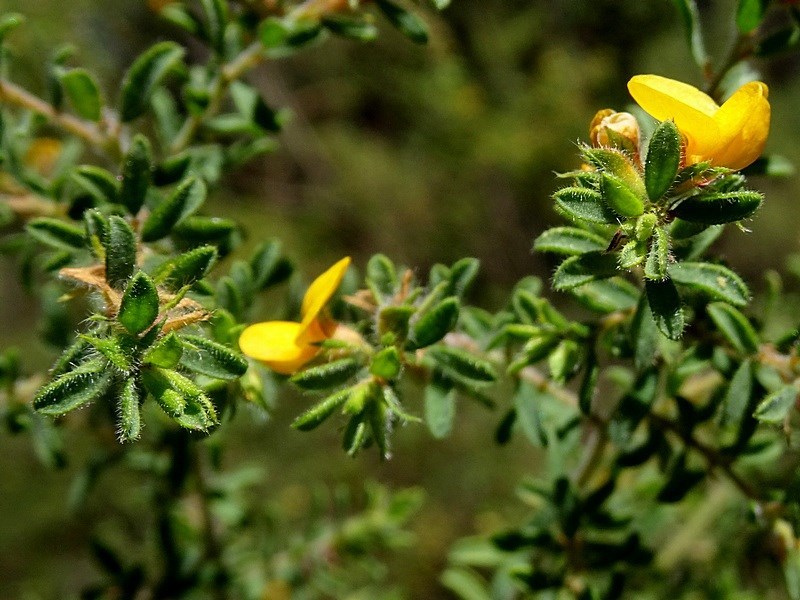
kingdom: Plantae
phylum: Tracheophyta
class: Magnoliopsida
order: Fabales
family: Fabaceae
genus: Pultenaea
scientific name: Pultenaea villosa
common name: Bronze bush-pea
